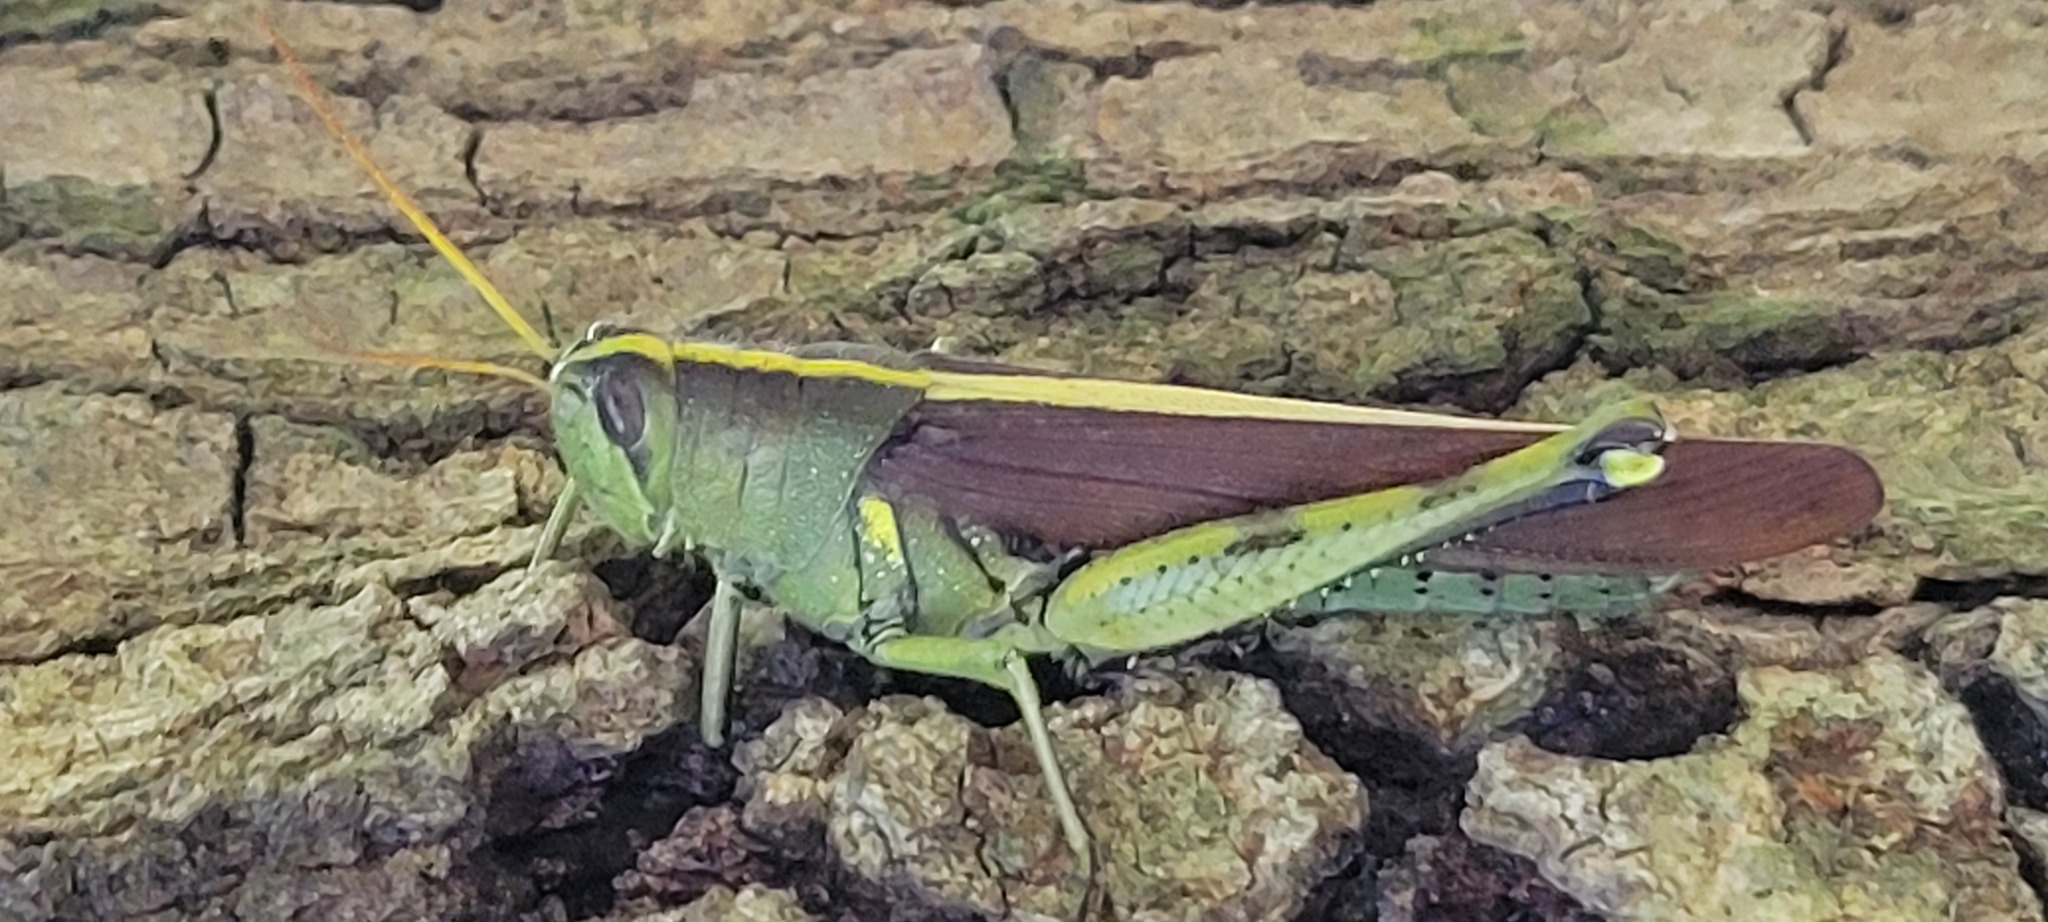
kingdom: Animalia
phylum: Arthropoda
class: Insecta
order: Orthoptera
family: Acrididae
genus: Schistocerca
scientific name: Schistocerca obscura
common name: Obscure bird grasshopper
